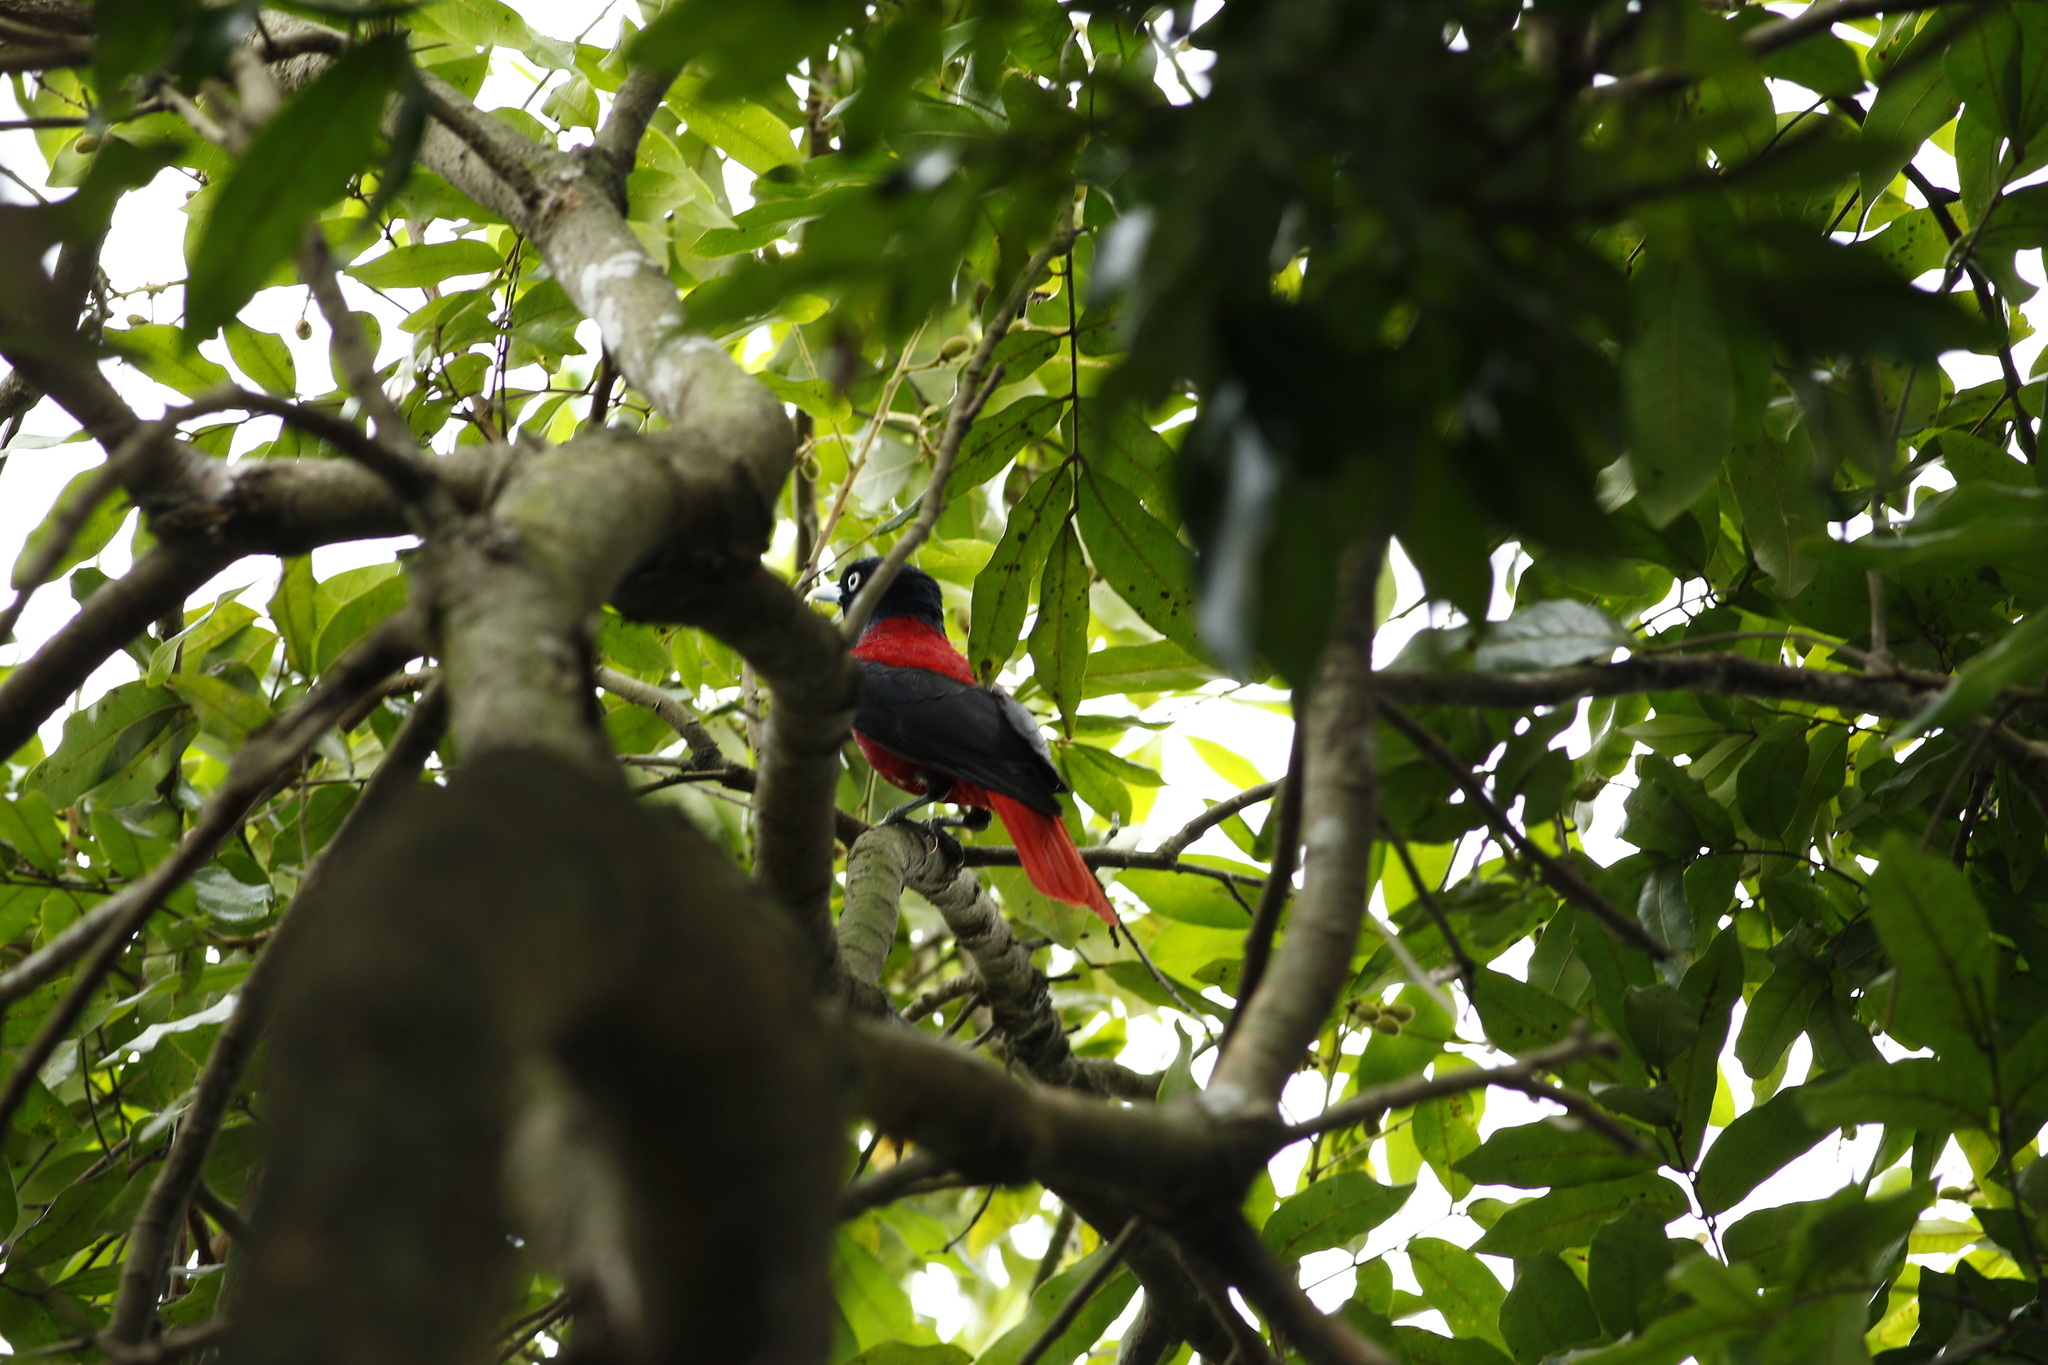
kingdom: Animalia
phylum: Chordata
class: Aves
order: Passeriformes
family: Oriolidae
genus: Oriolus
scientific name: Oriolus traillii
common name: Maroon oriole
